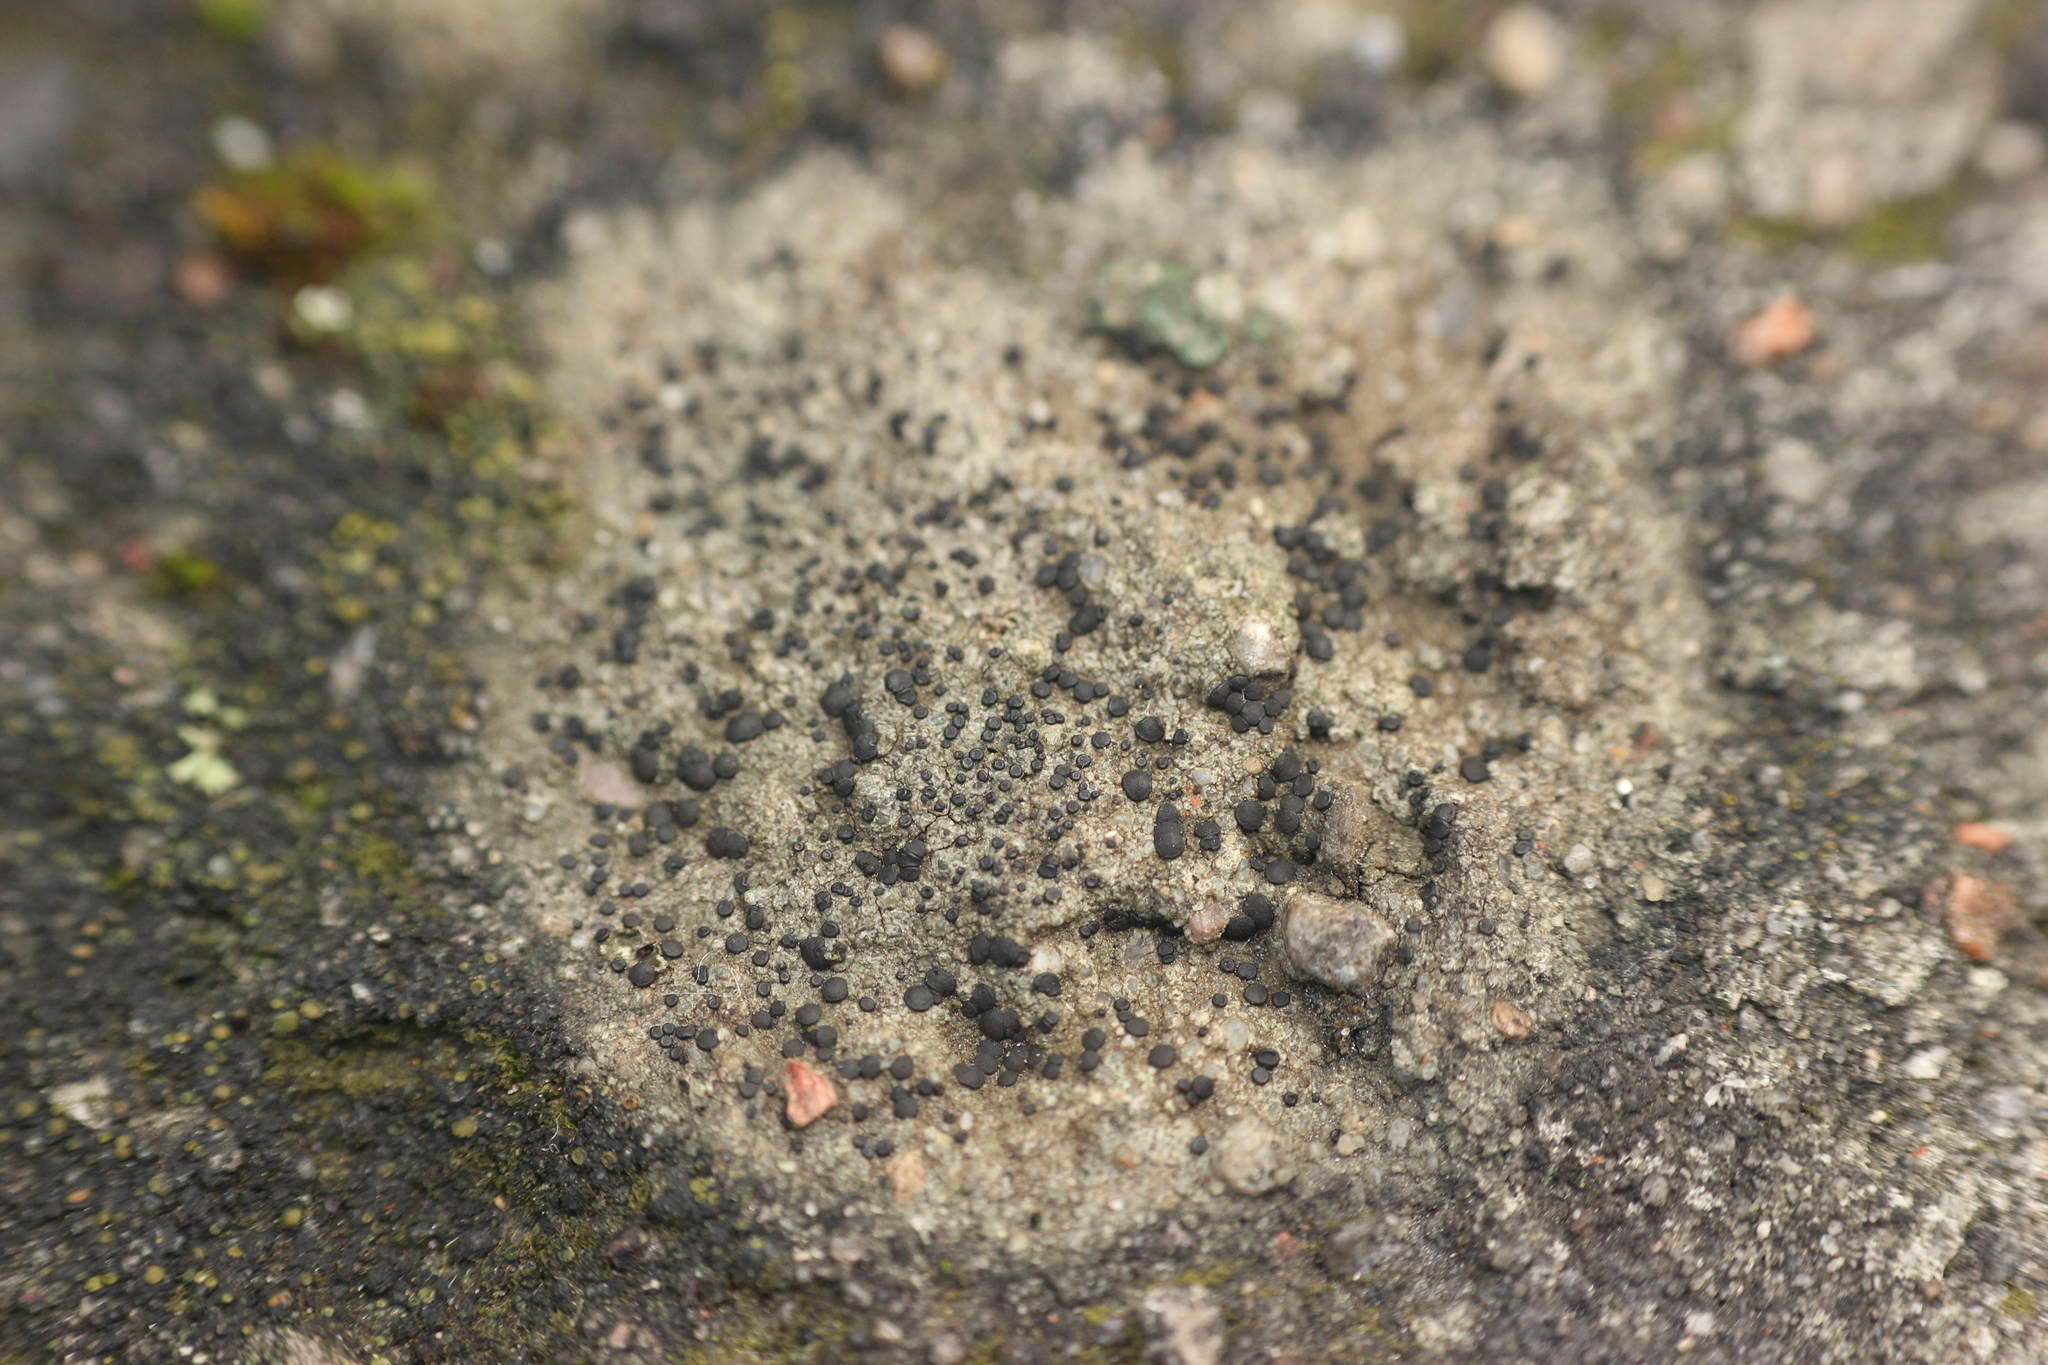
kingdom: Fungi
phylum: Ascomycota
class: Lecanoromycetes
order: Lecanorales
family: Lecanoraceae
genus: Lecidella
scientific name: Lecidella stigmatea
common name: Limestone disc lichen
